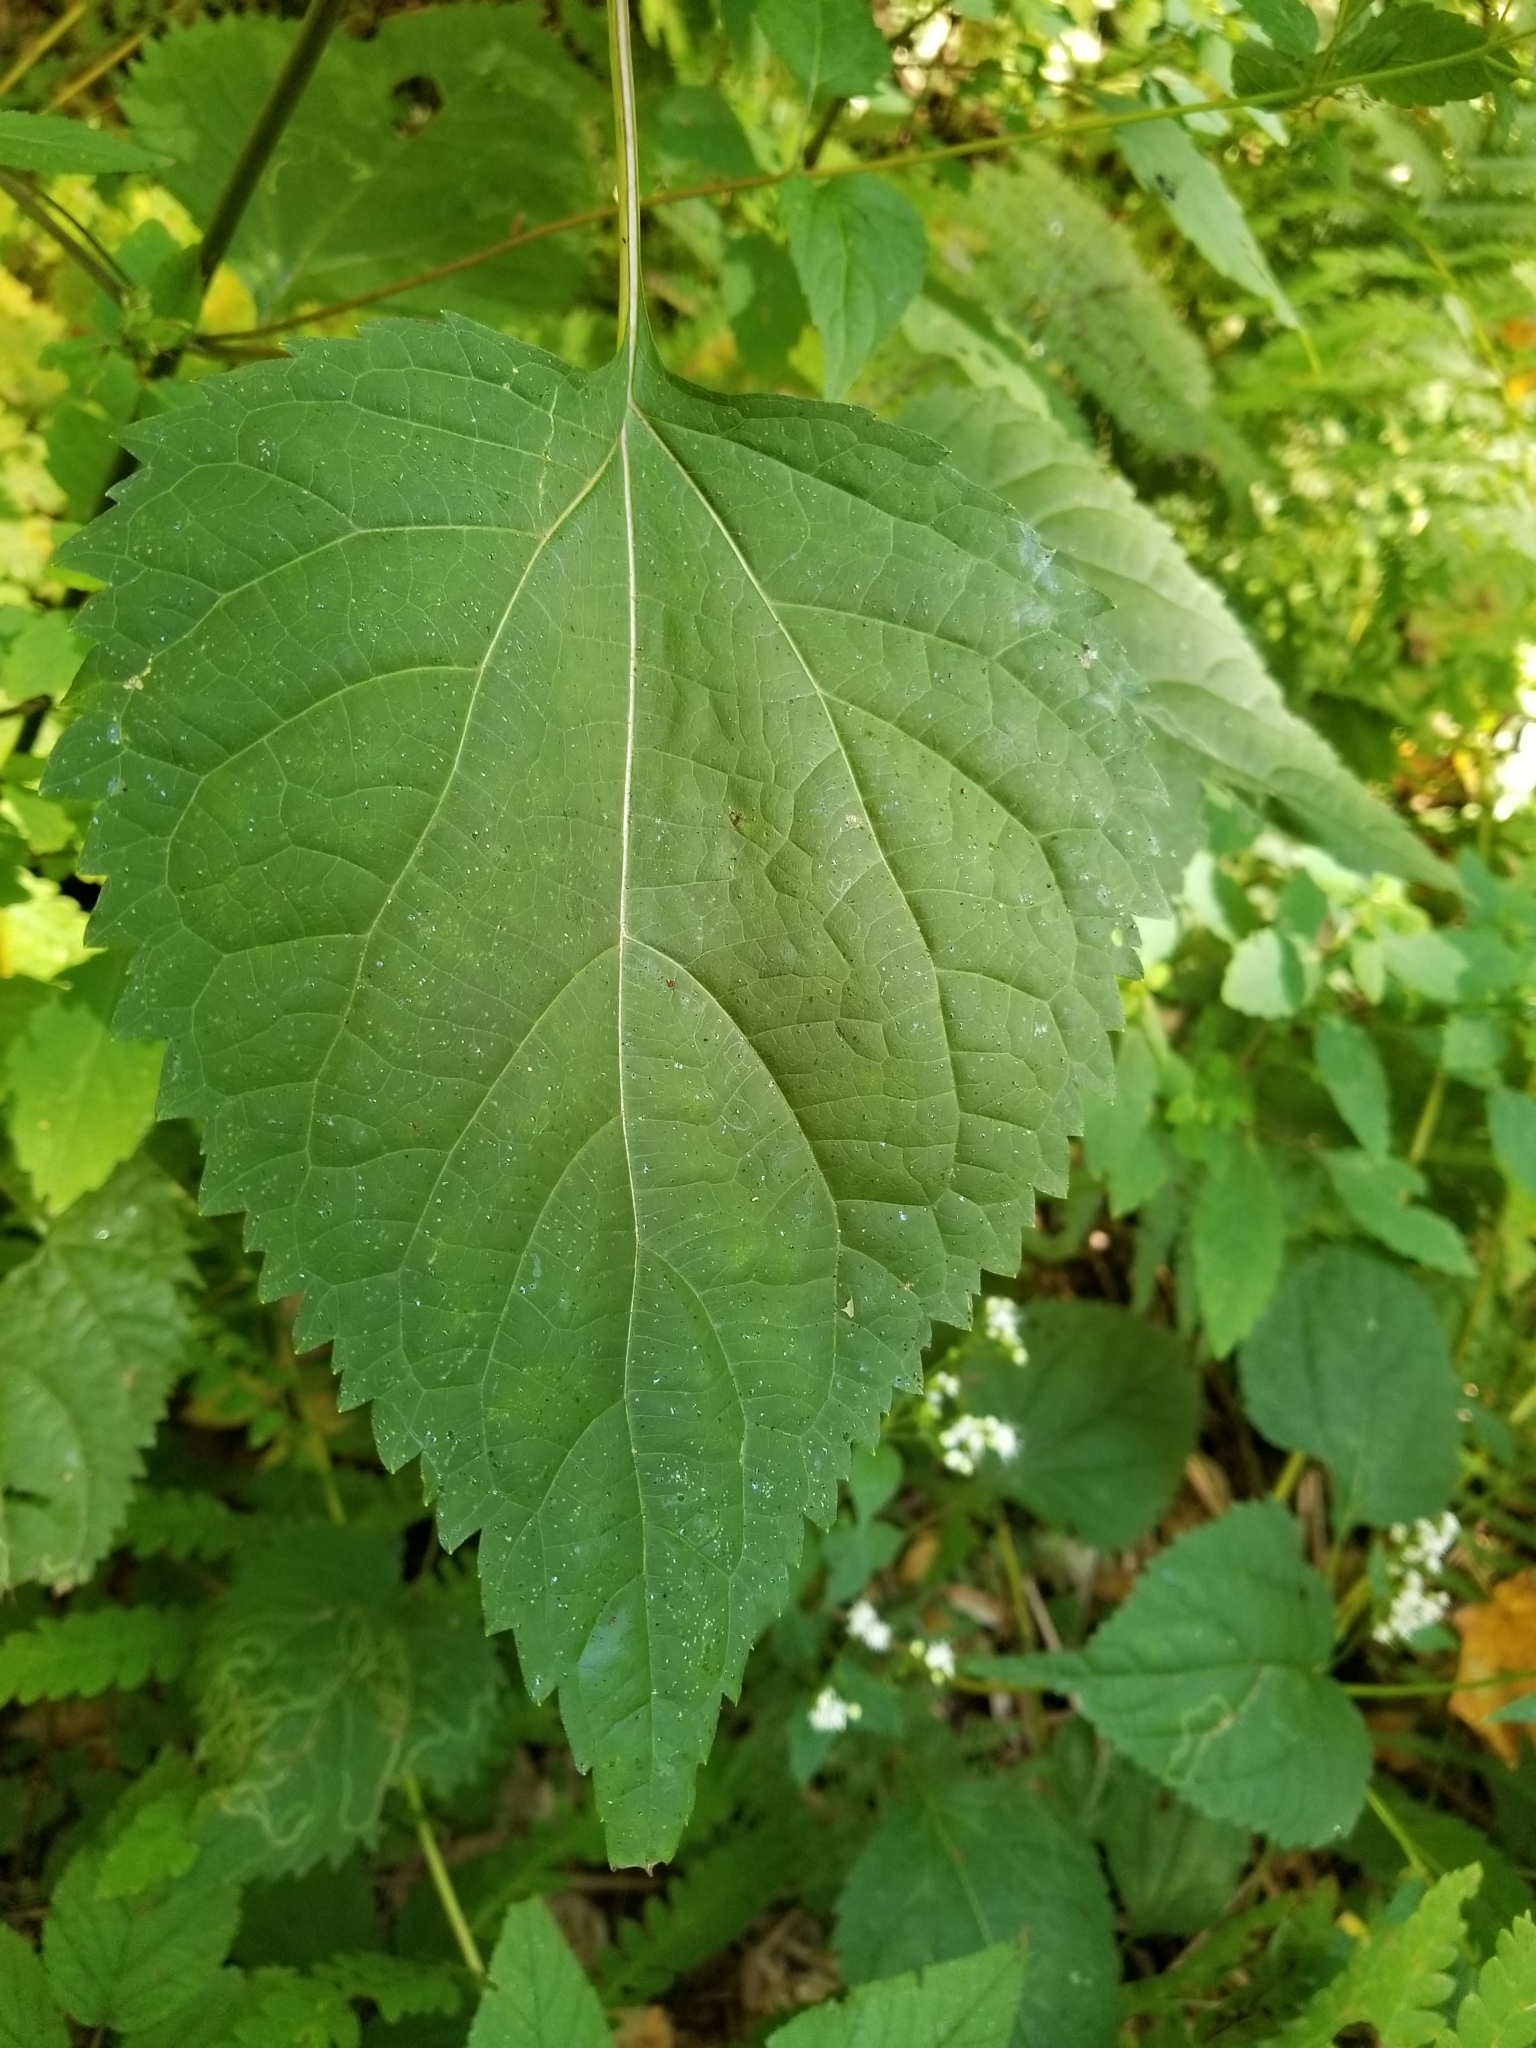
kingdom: Plantae
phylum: Tracheophyta
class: Magnoliopsida
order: Asterales
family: Asteraceae
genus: Ageratina
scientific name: Ageratina altissima
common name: White snakeroot
